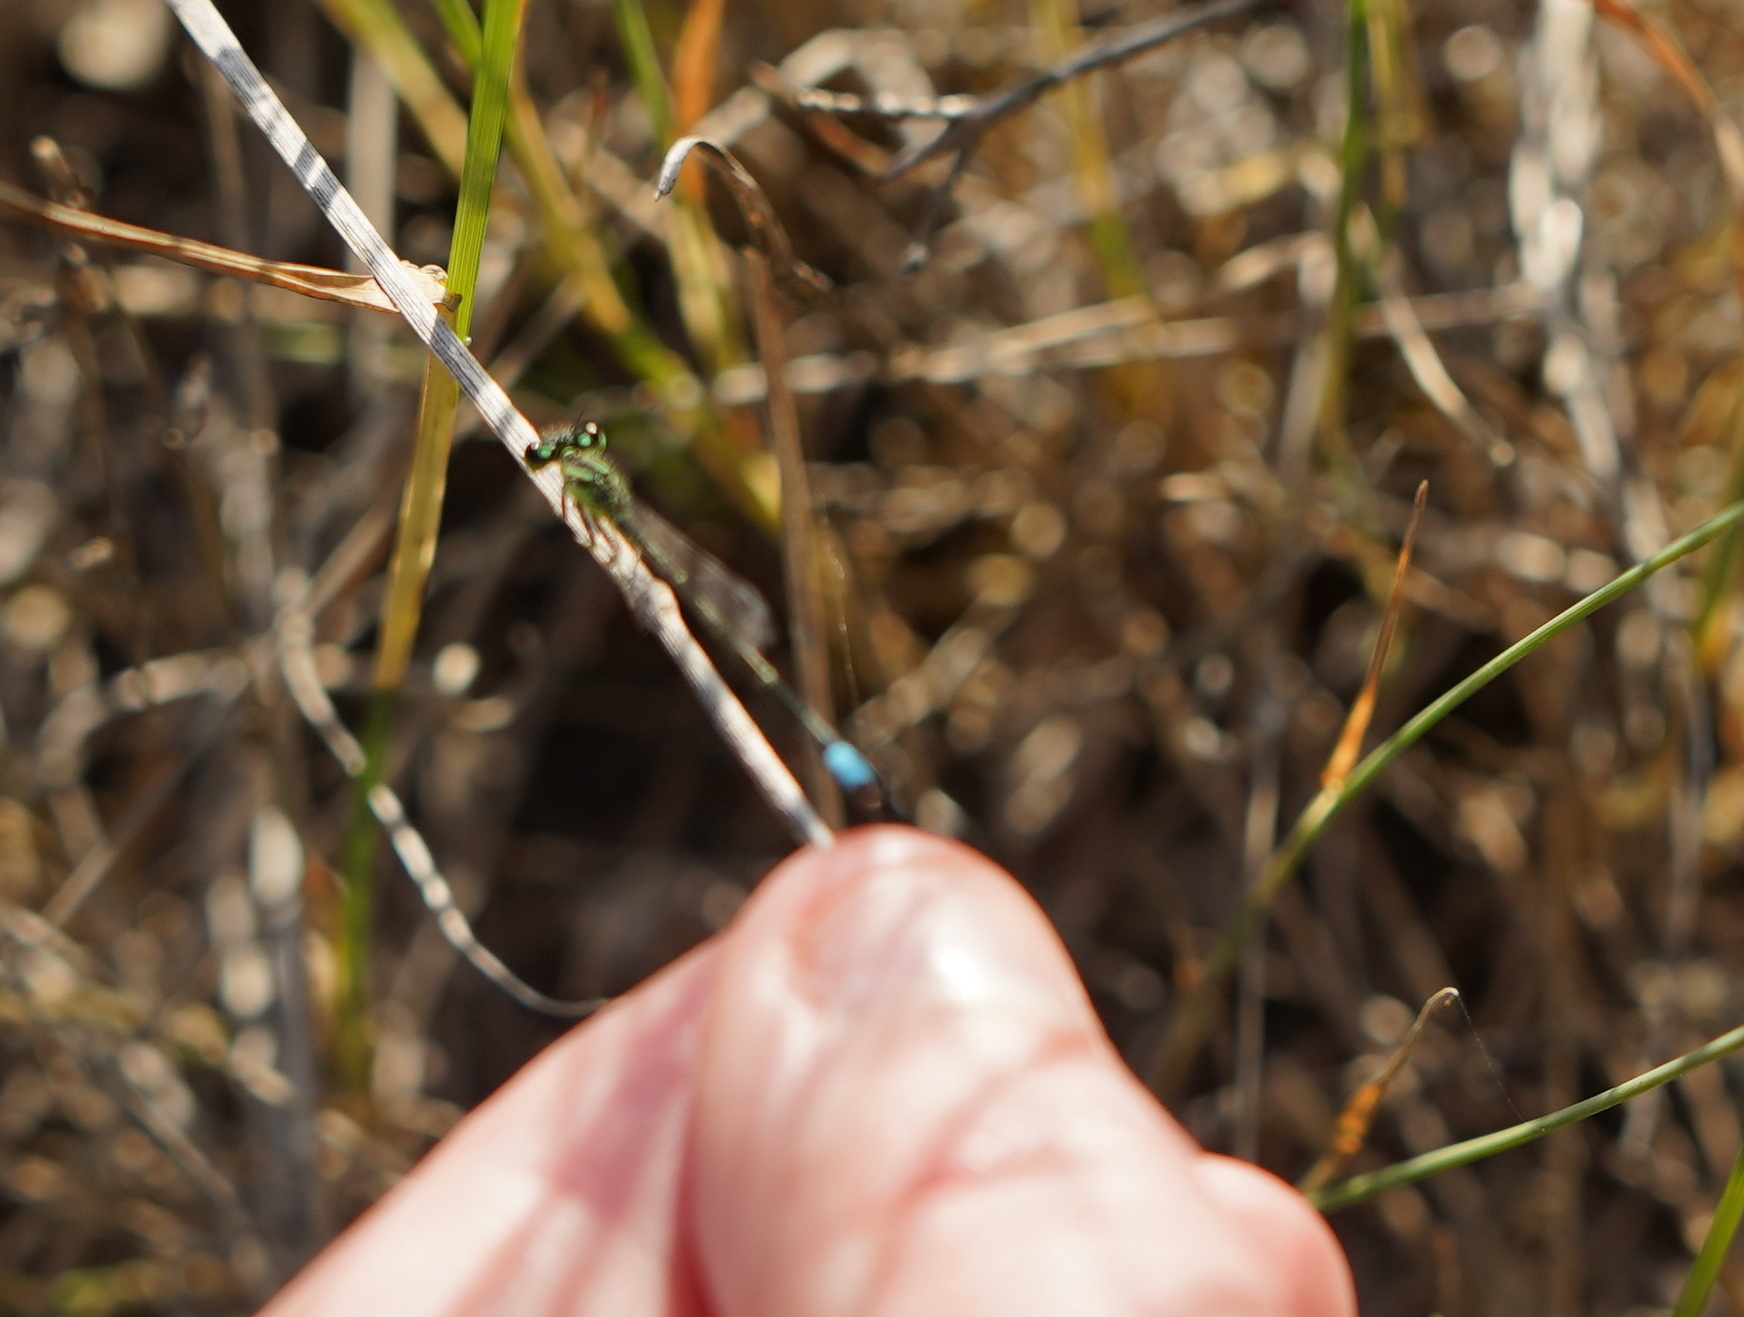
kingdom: Animalia
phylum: Arthropoda
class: Insecta
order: Odonata
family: Coenagrionidae
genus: Ischnura
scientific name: Ischnura verticalis
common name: Eastern forktail
